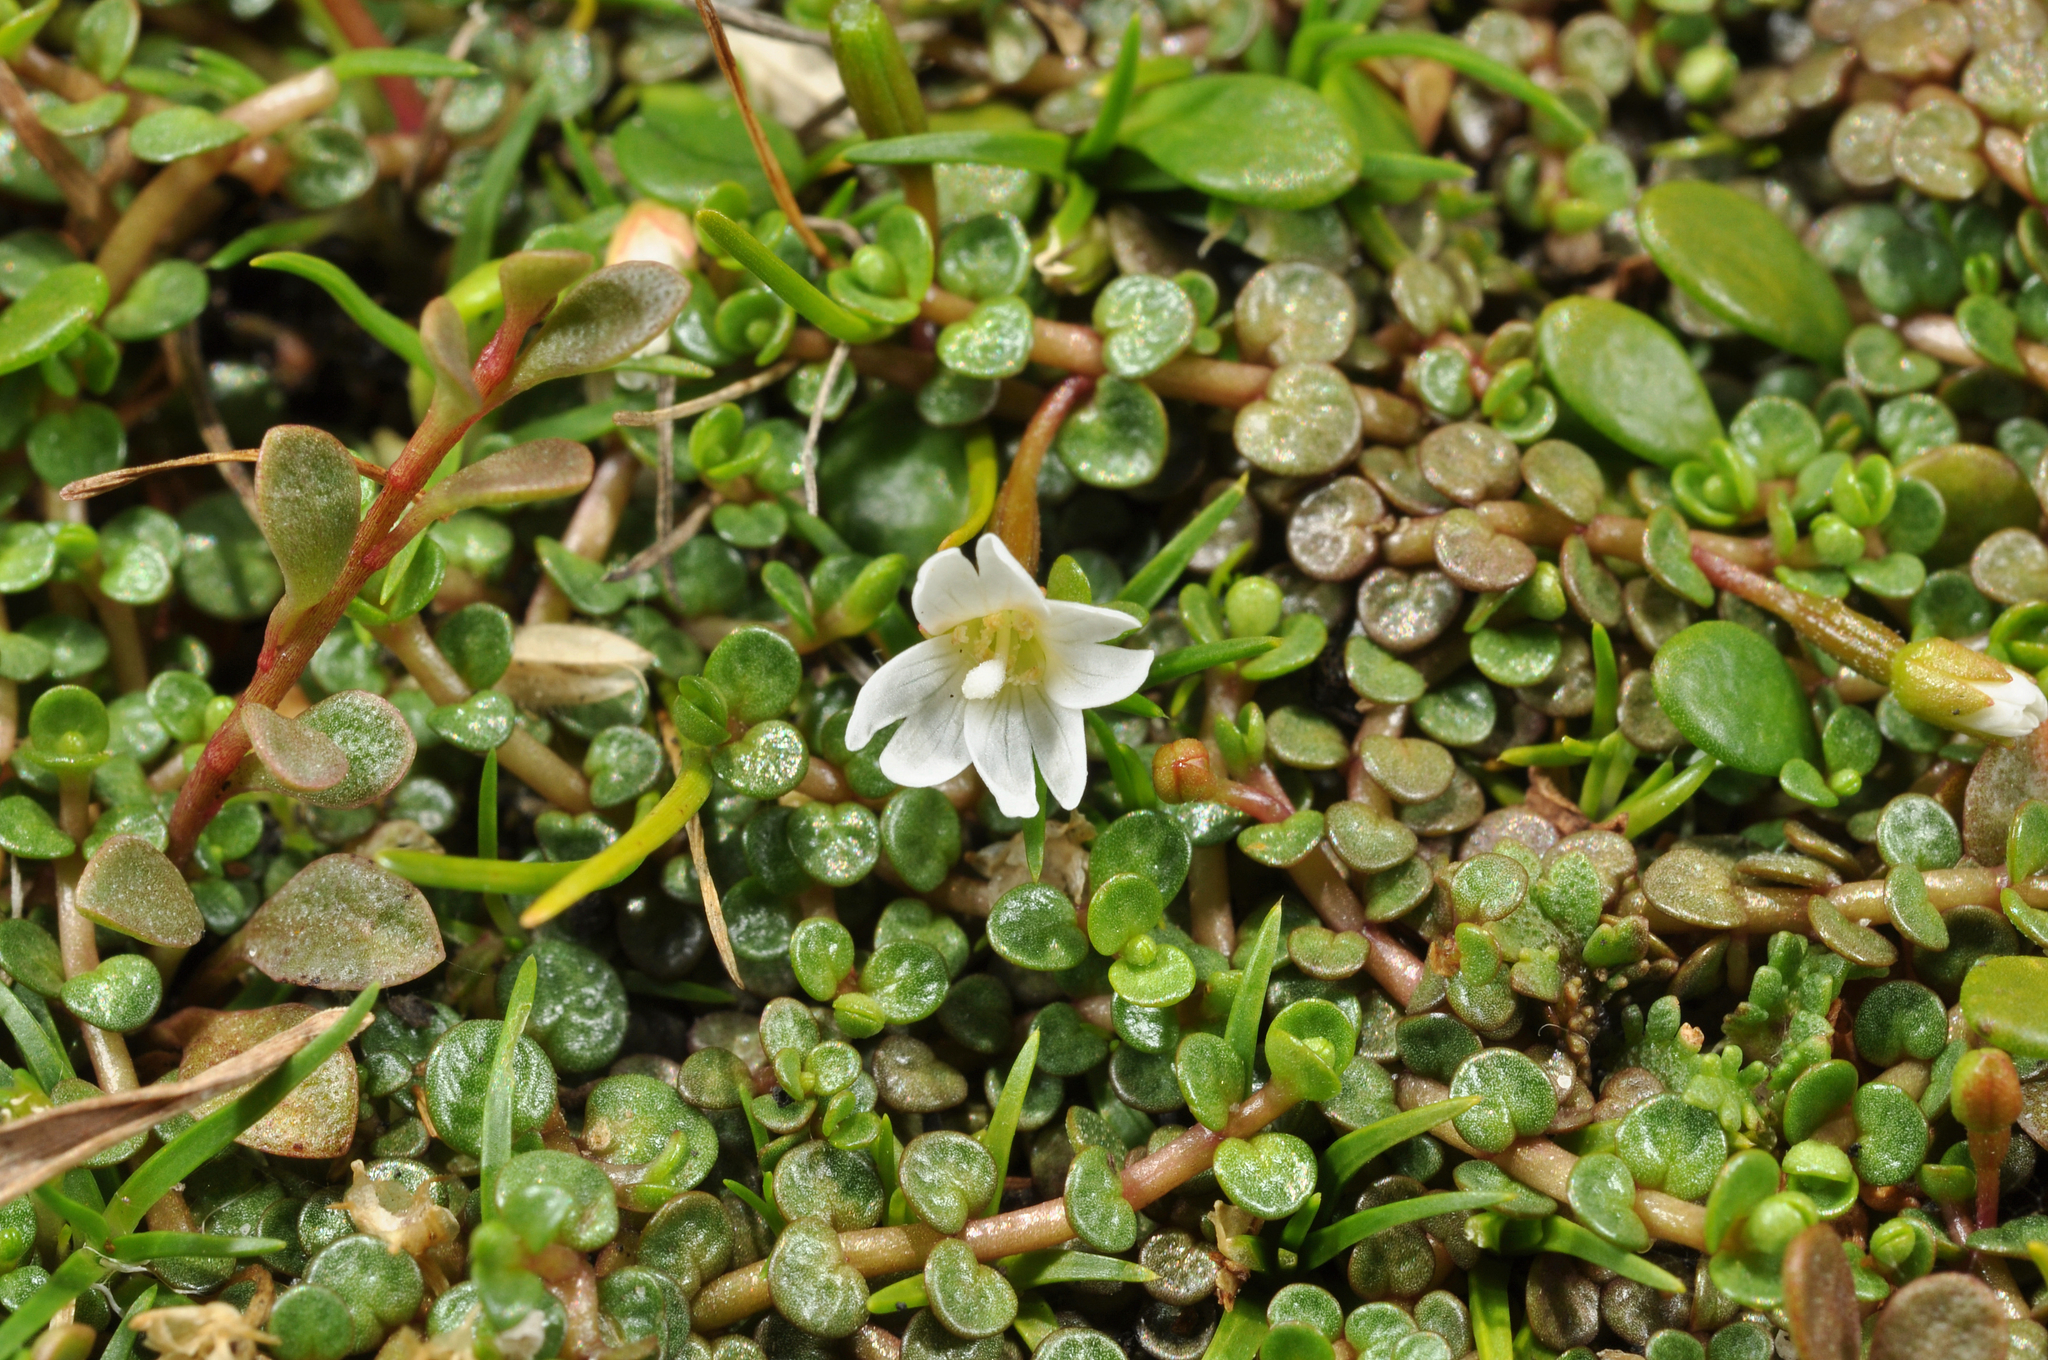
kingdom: Plantae
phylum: Tracheophyta
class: Magnoliopsida
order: Myrtales
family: Onagraceae
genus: Epilobium
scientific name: Epilobium komarovianum
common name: Bronzy willowherb
